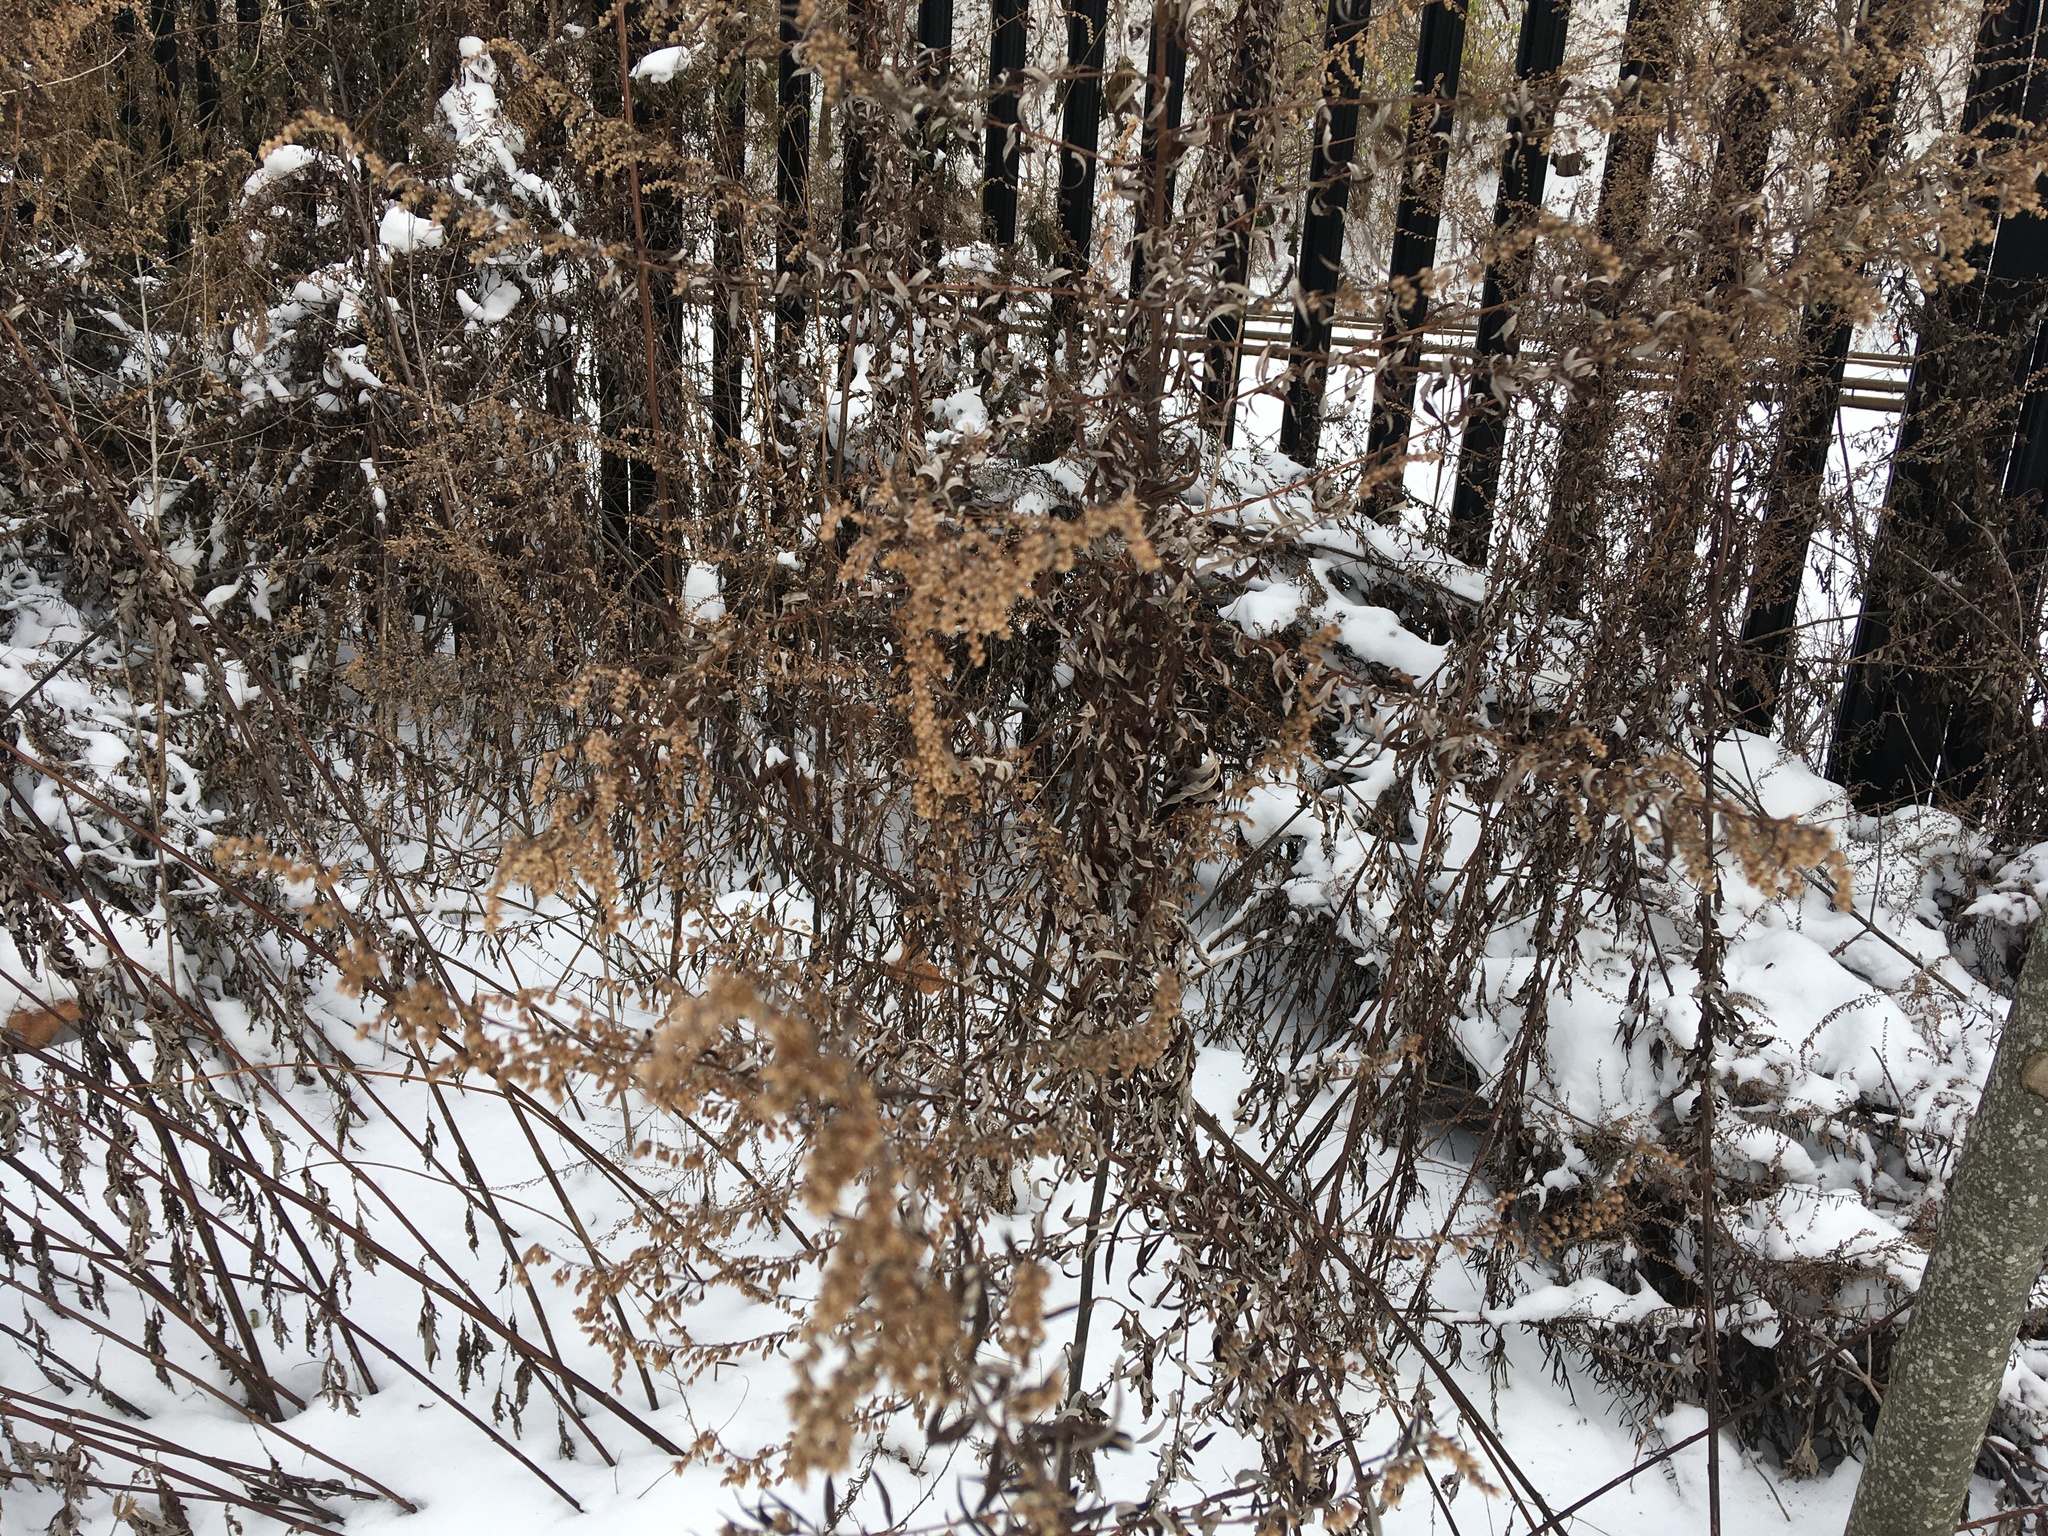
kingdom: Plantae
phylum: Tracheophyta
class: Magnoliopsida
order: Asterales
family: Asteraceae
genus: Artemisia
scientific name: Artemisia vulgaris
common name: Mugwort
